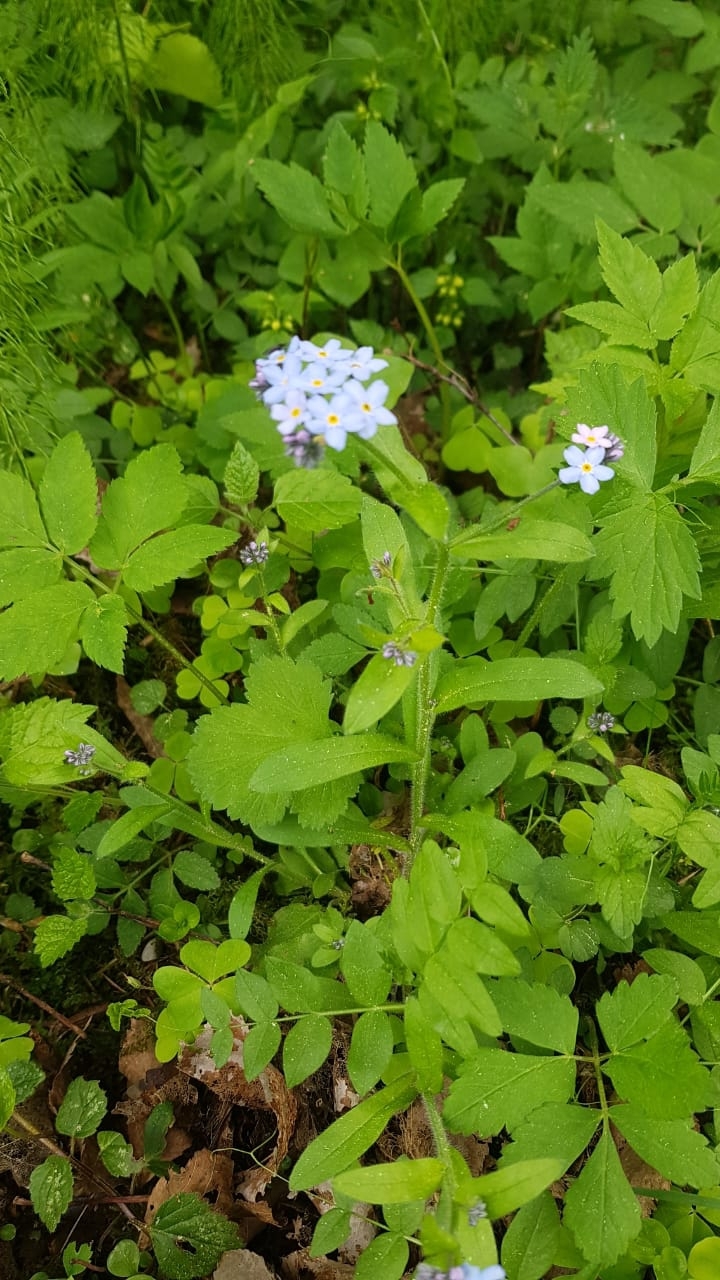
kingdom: Plantae
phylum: Tracheophyta
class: Magnoliopsida
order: Boraginales
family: Boraginaceae
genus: Myosotis
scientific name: Myosotis sylvatica
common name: Wood forget-me-not
